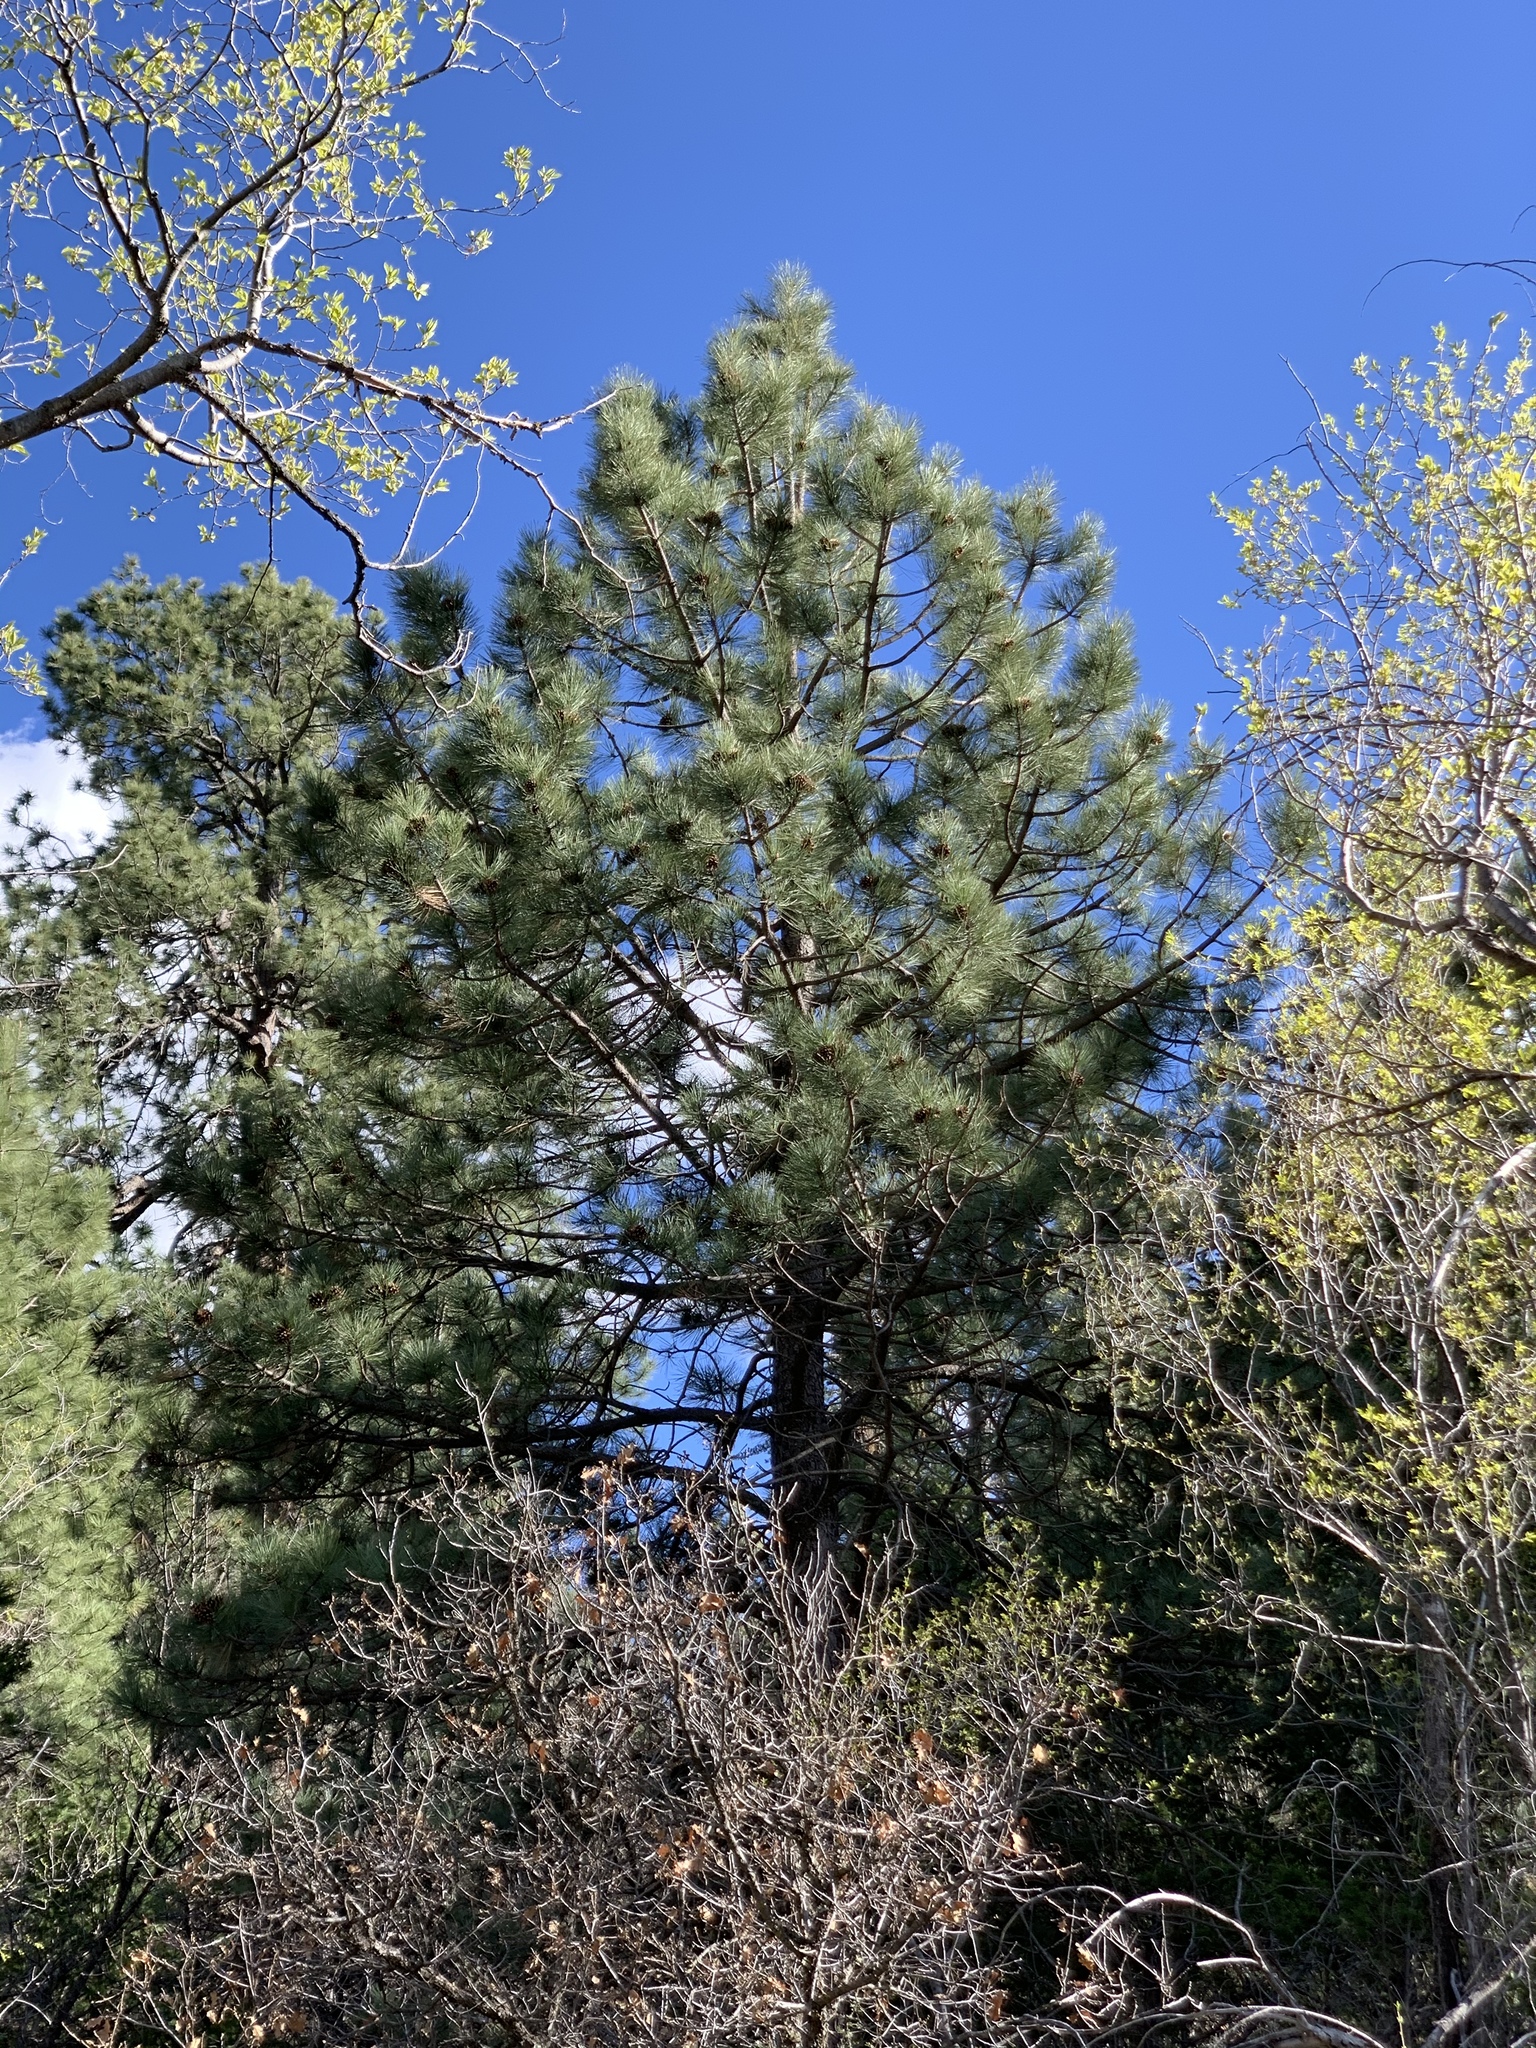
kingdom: Plantae
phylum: Tracheophyta
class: Pinopsida
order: Pinales
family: Pinaceae
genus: Pinus
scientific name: Pinus ponderosa
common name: Western yellow-pine
